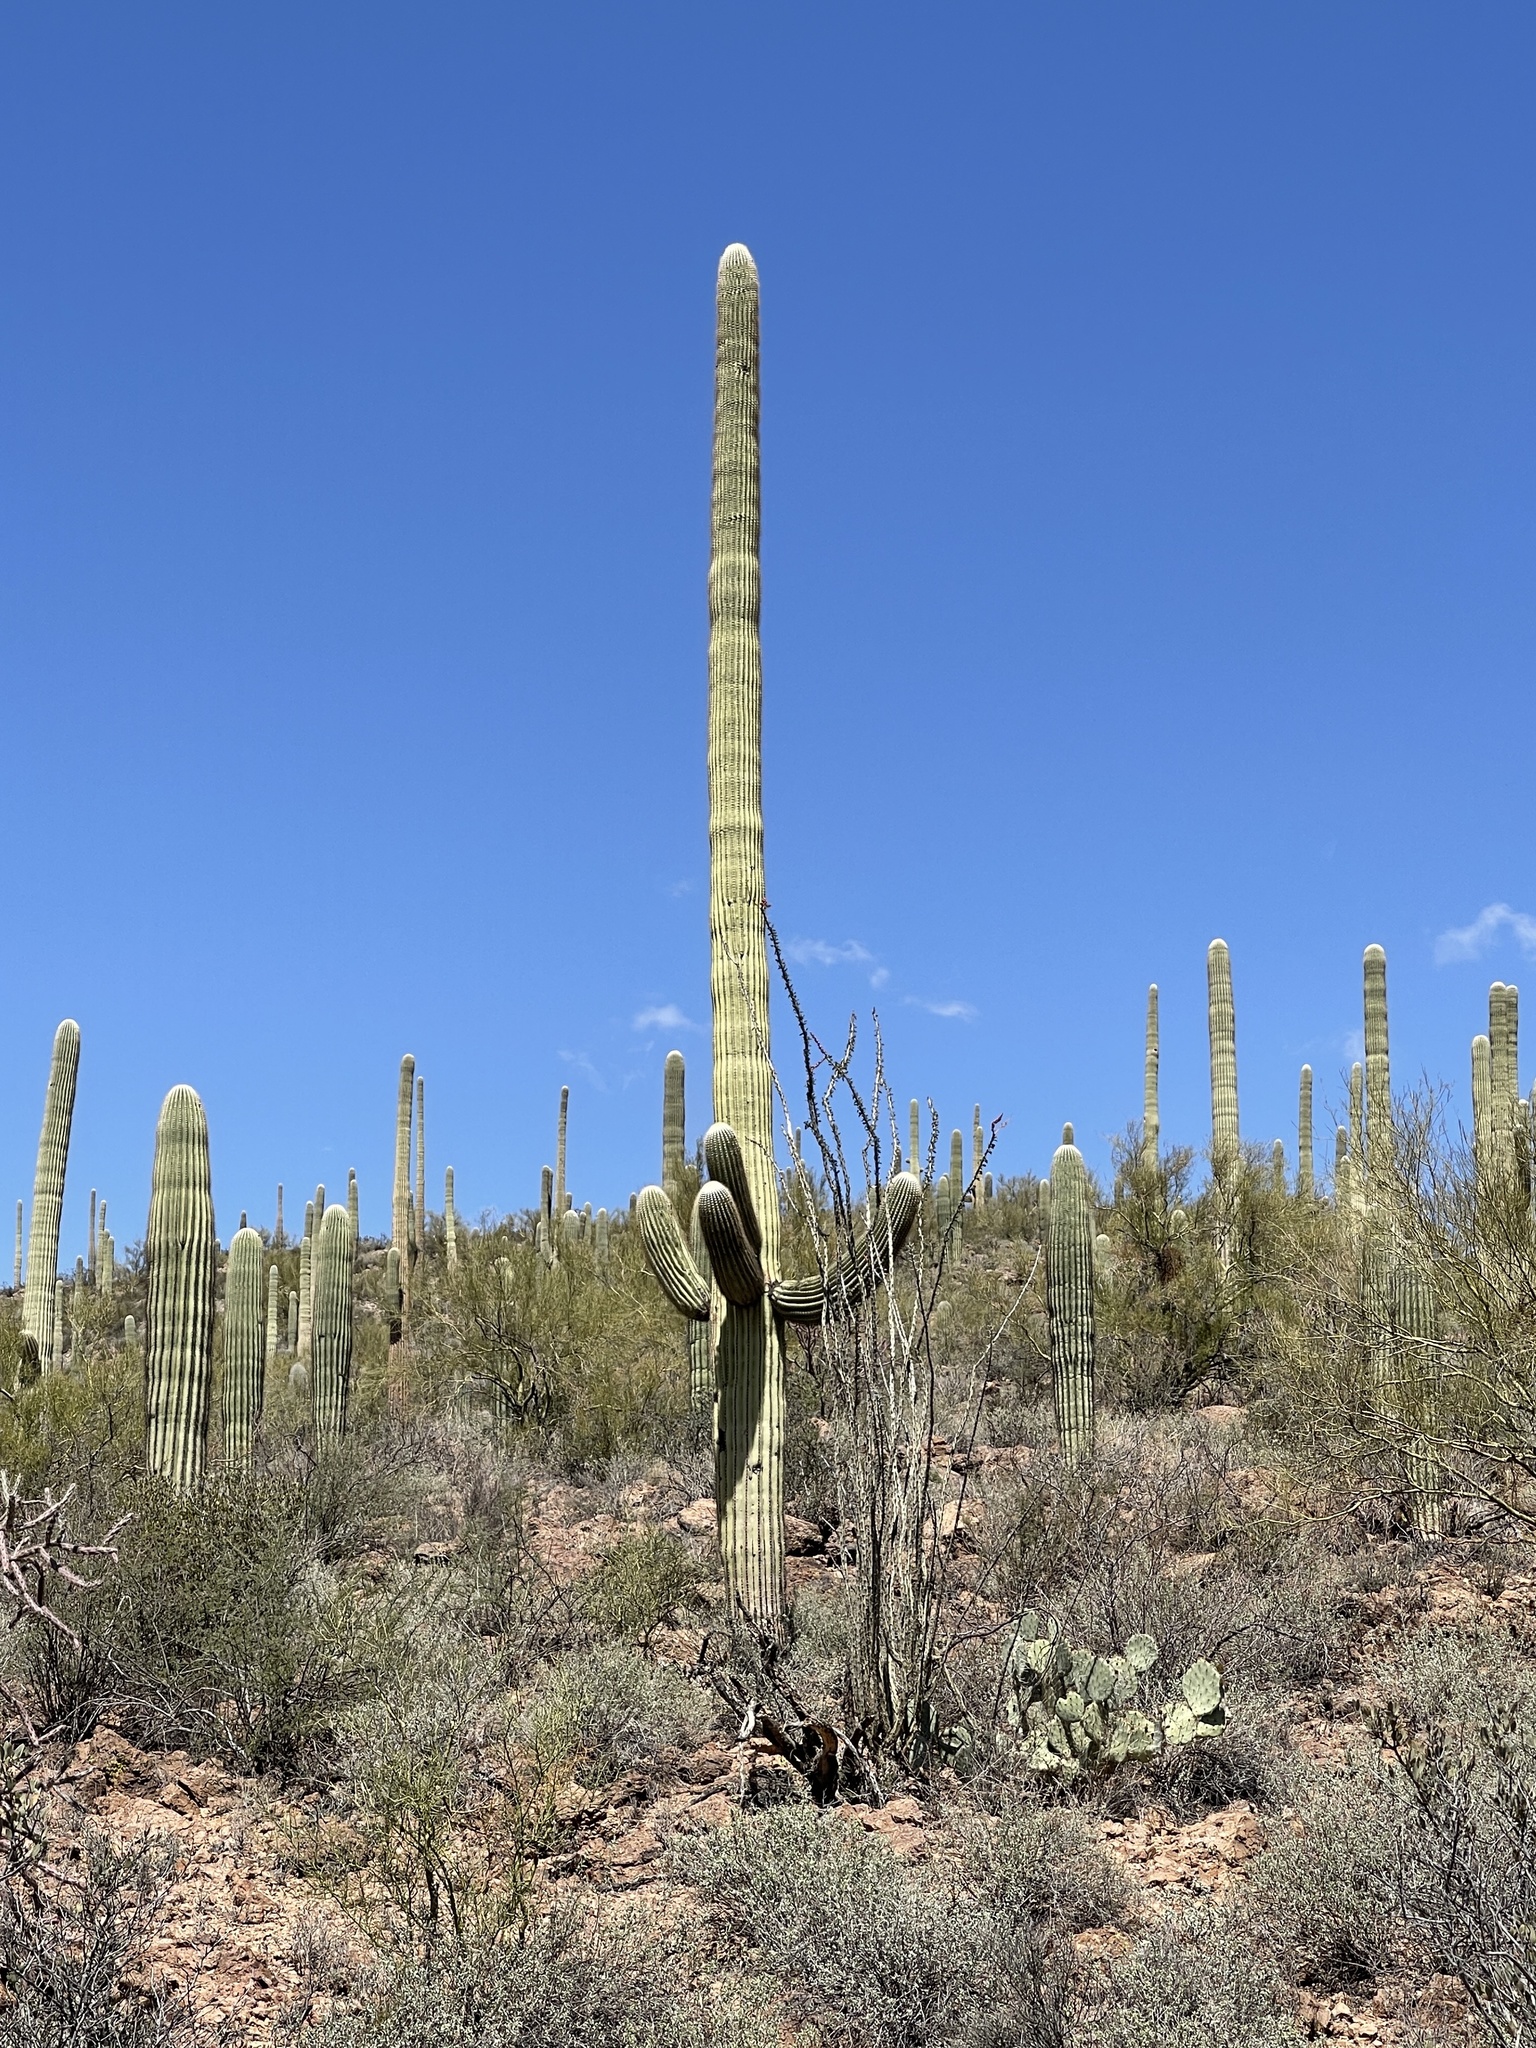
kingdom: Plantae
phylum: Tracheophyta
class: Magnoliopsida
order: Caryophyllales
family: Cactaceae
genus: Carnegiea
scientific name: Carnegiea gigantea
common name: Saguaro
